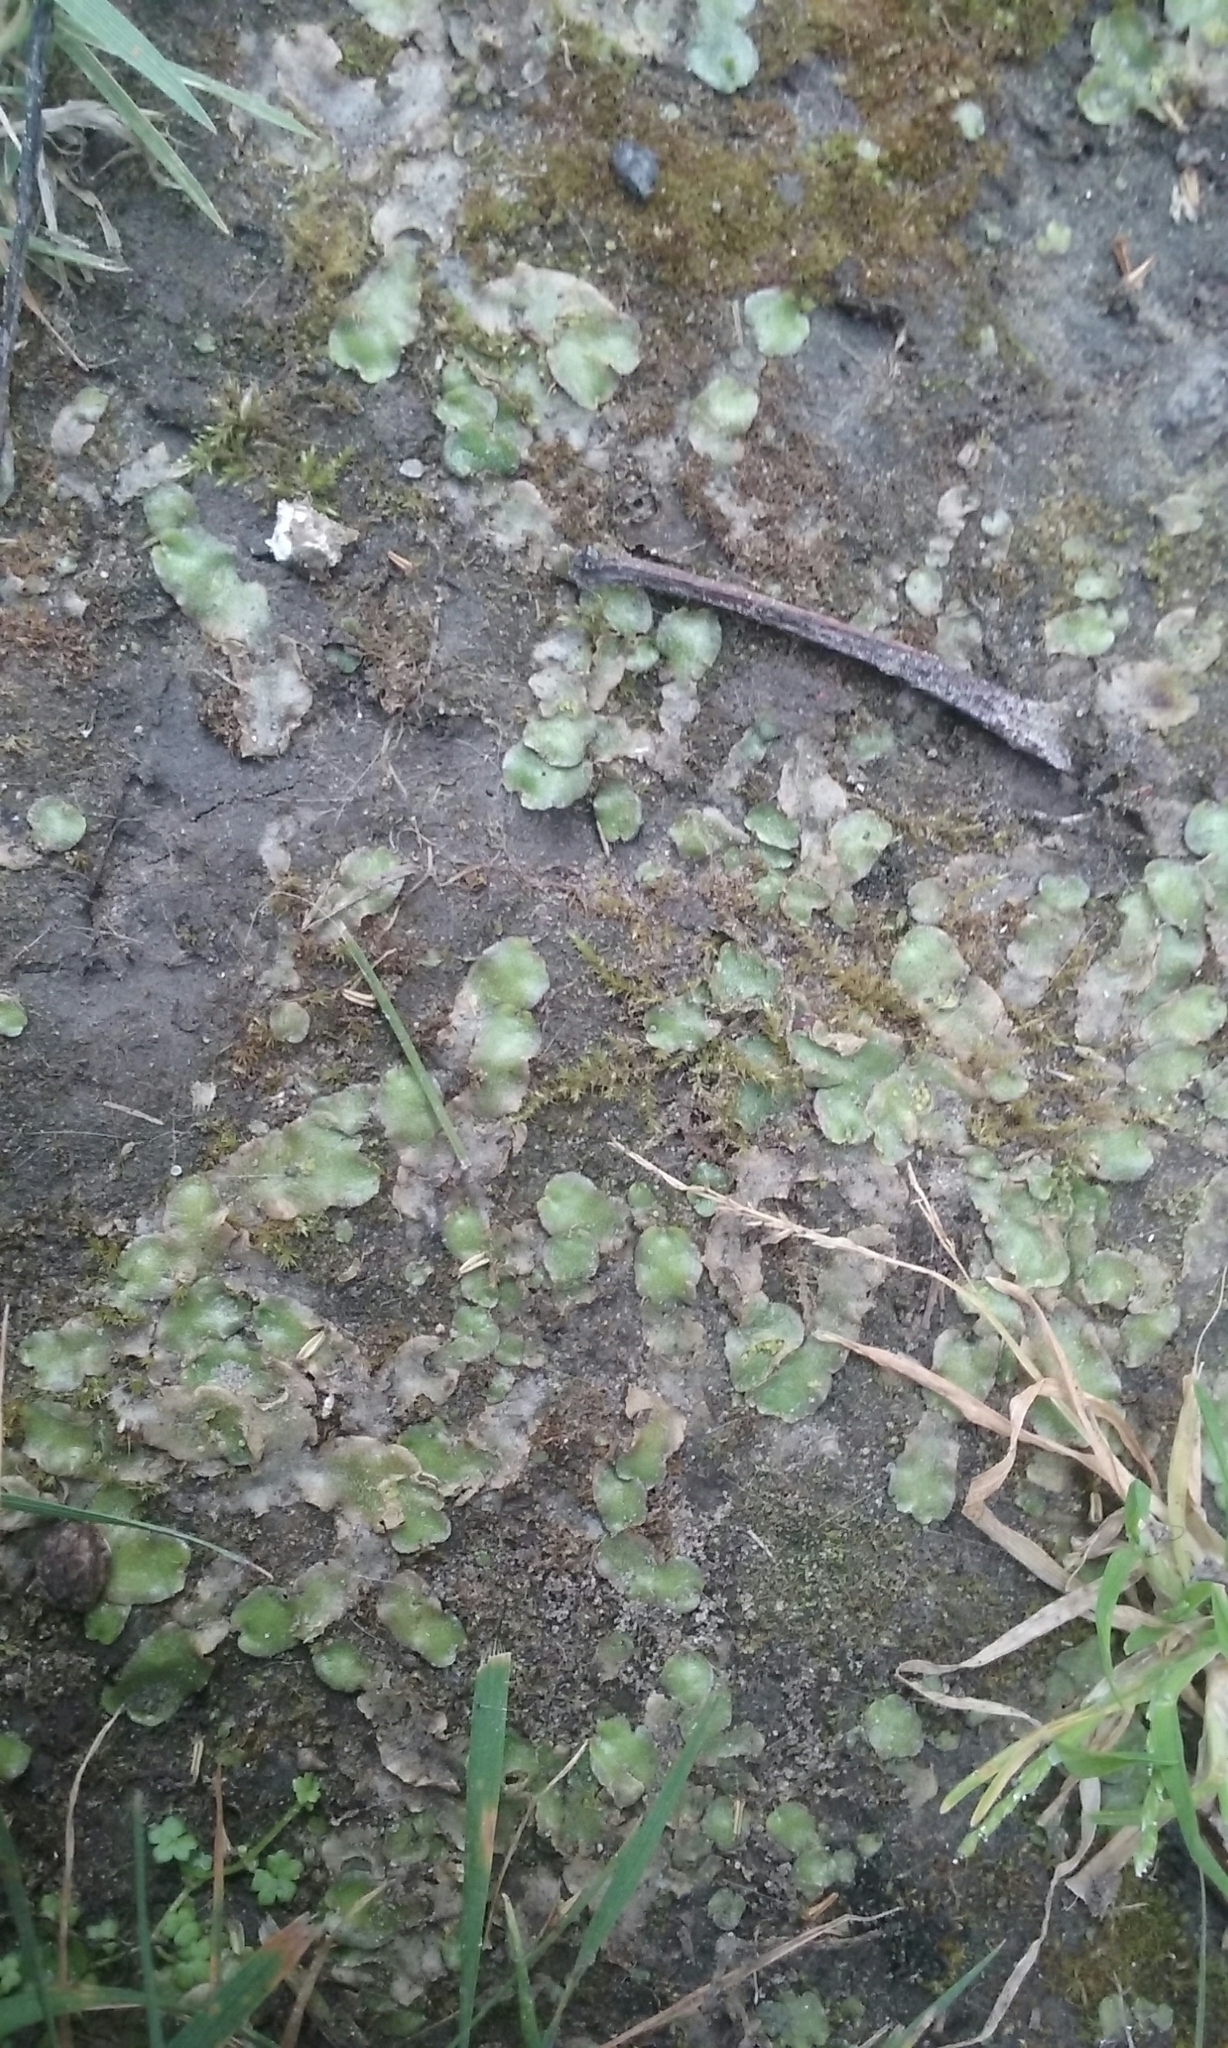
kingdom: Plantae
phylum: Marchantiophyta
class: Marchantiopsida
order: Lunulariales
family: Lunulariaceae
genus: Lunularia
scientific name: Lunularia cruciata
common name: Crescent-cup liverwort
